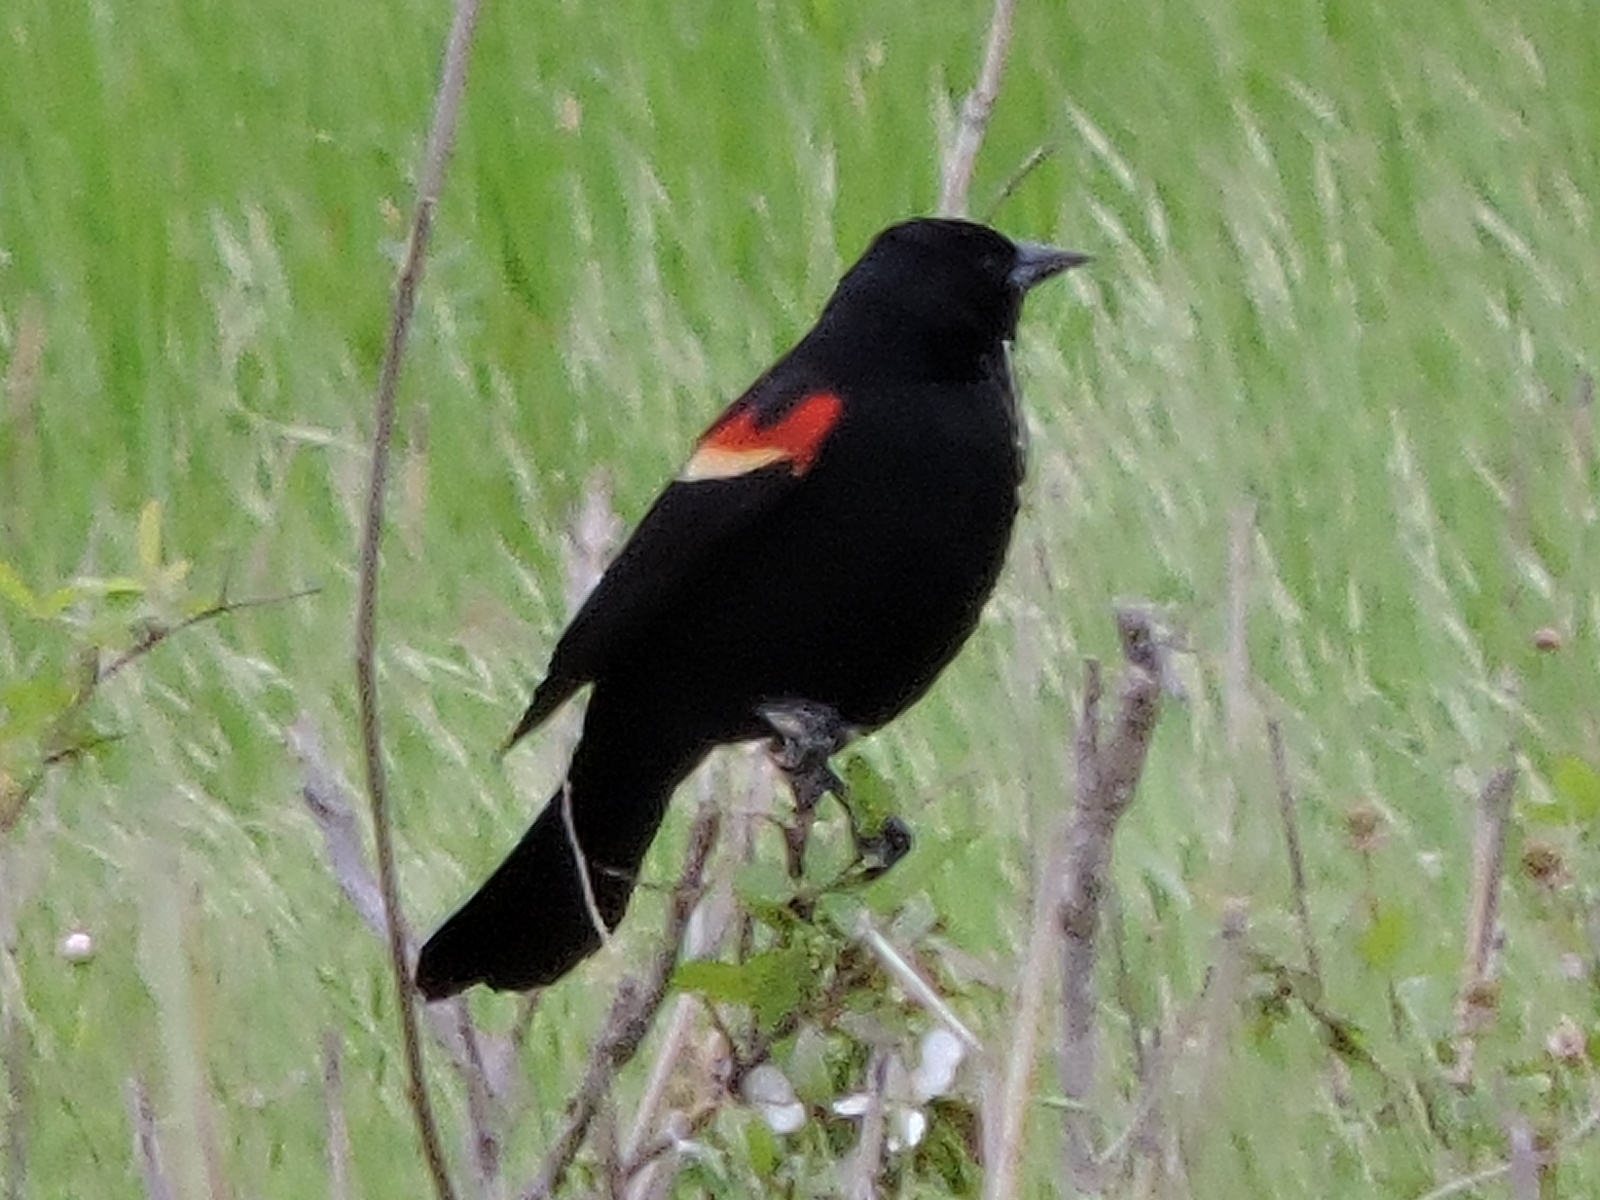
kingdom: Animalia
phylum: Chordata
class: Aves
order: Passeriformes
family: Icteridae
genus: Agelaius
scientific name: Agelaius phoeniceus
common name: Red-winged blackbird
